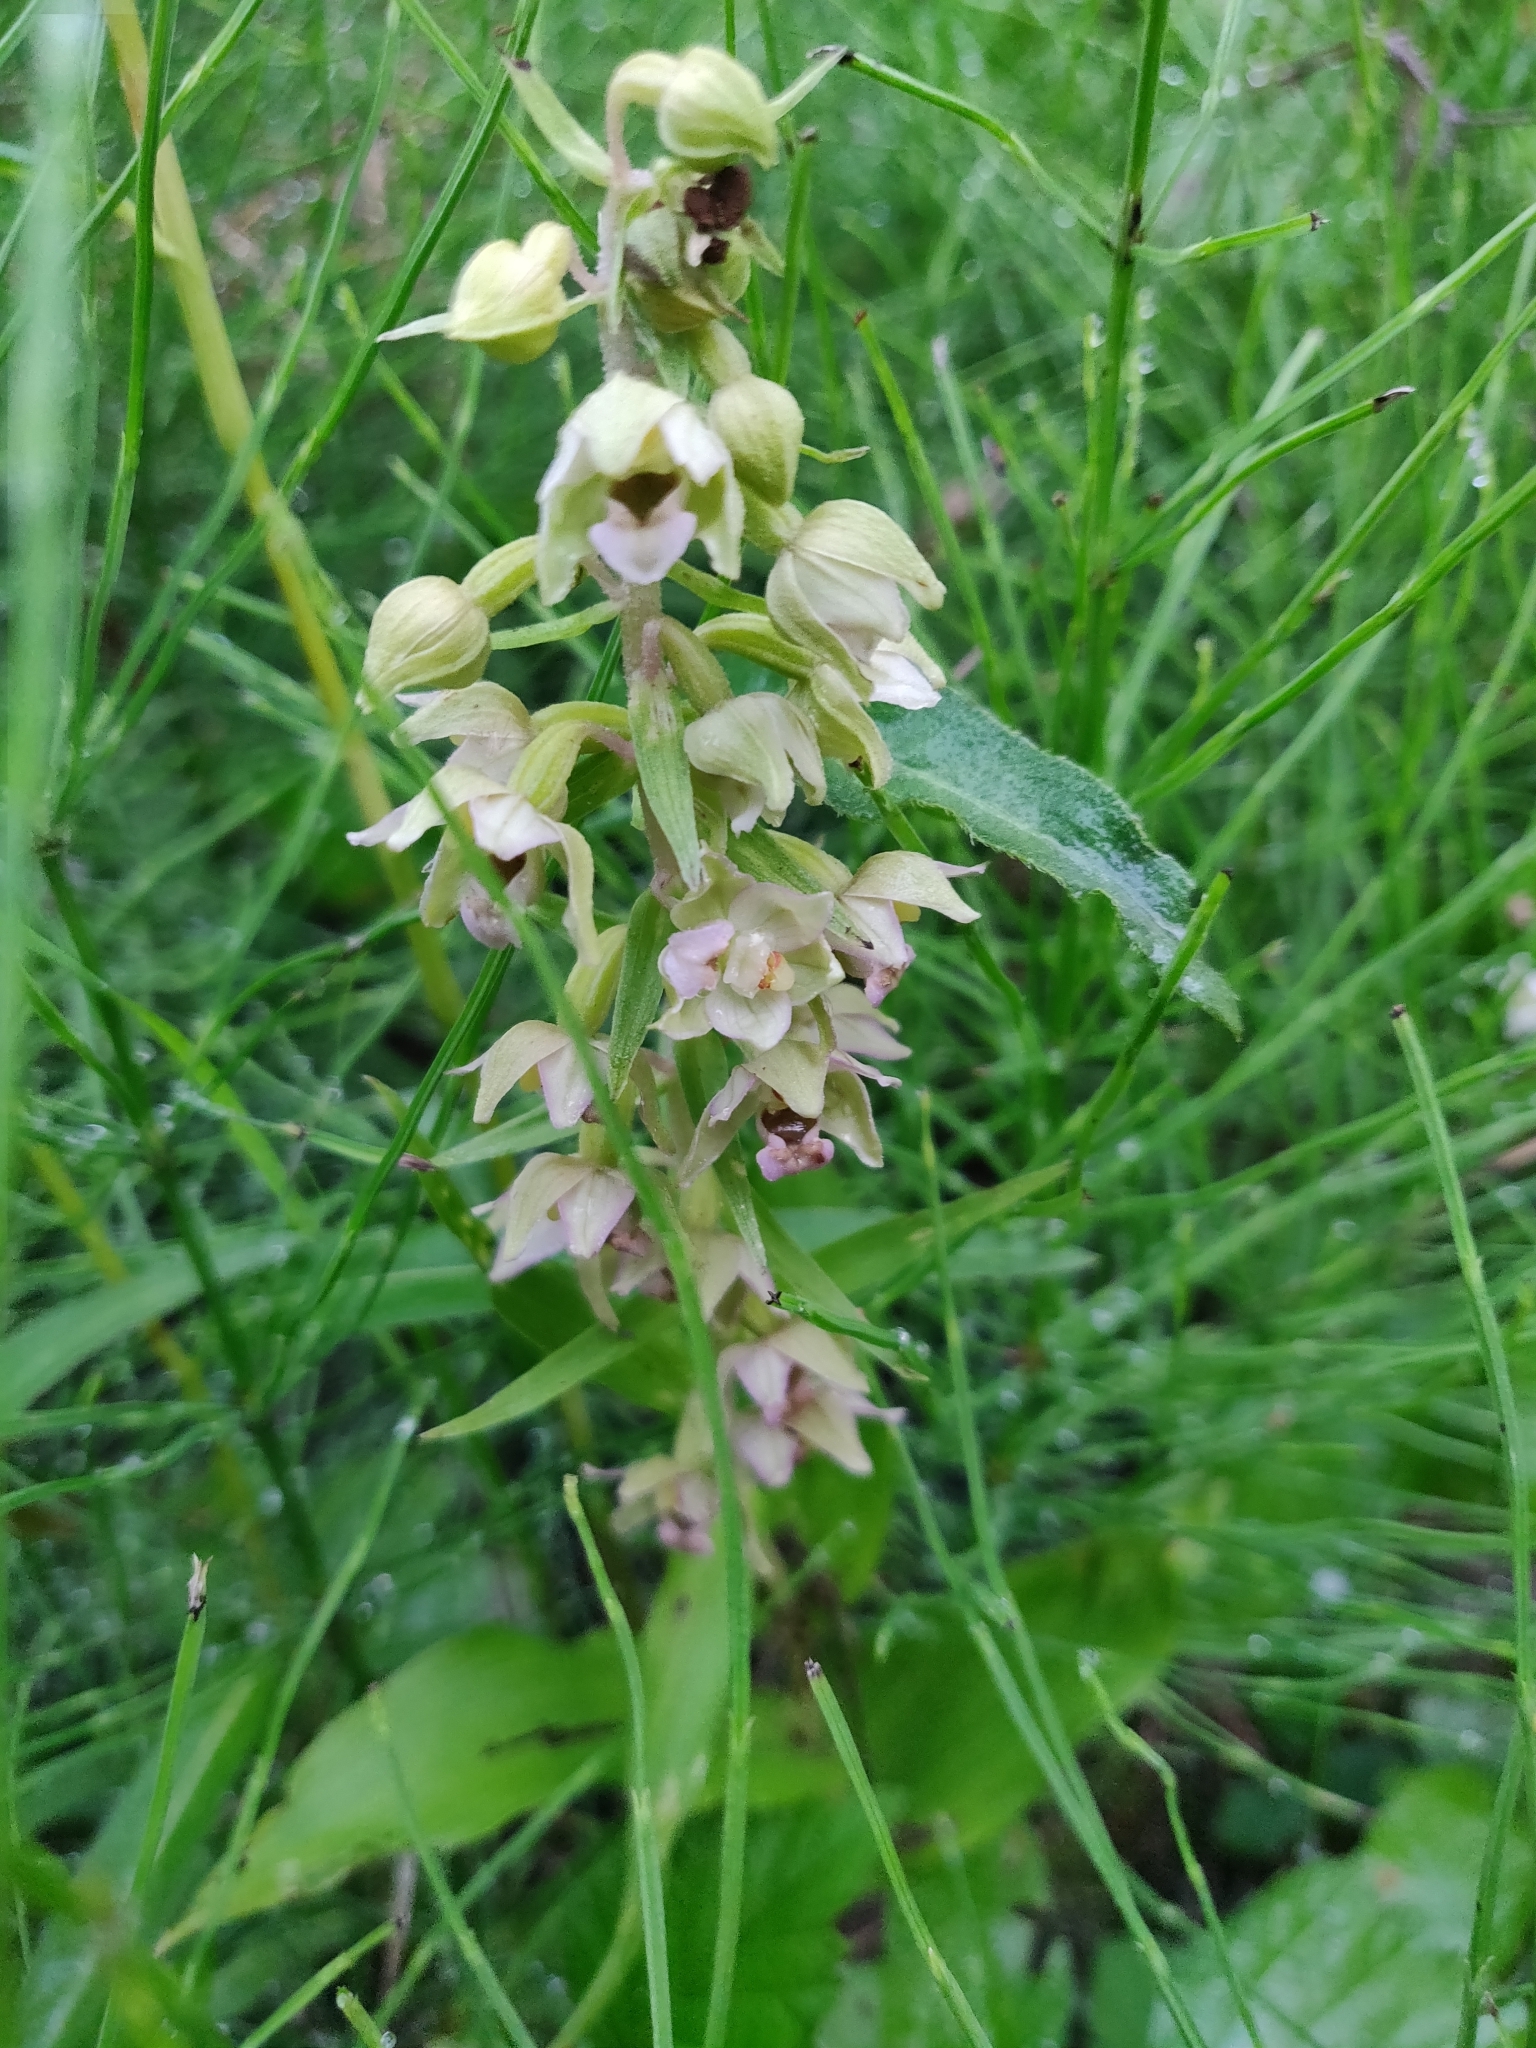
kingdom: Plantae
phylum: Tracheophyta
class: Liliopsida
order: Asparagales
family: Orchidaceae
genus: Epipactis
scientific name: Epipactis helleborine
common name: Broad-leaved helleborine
